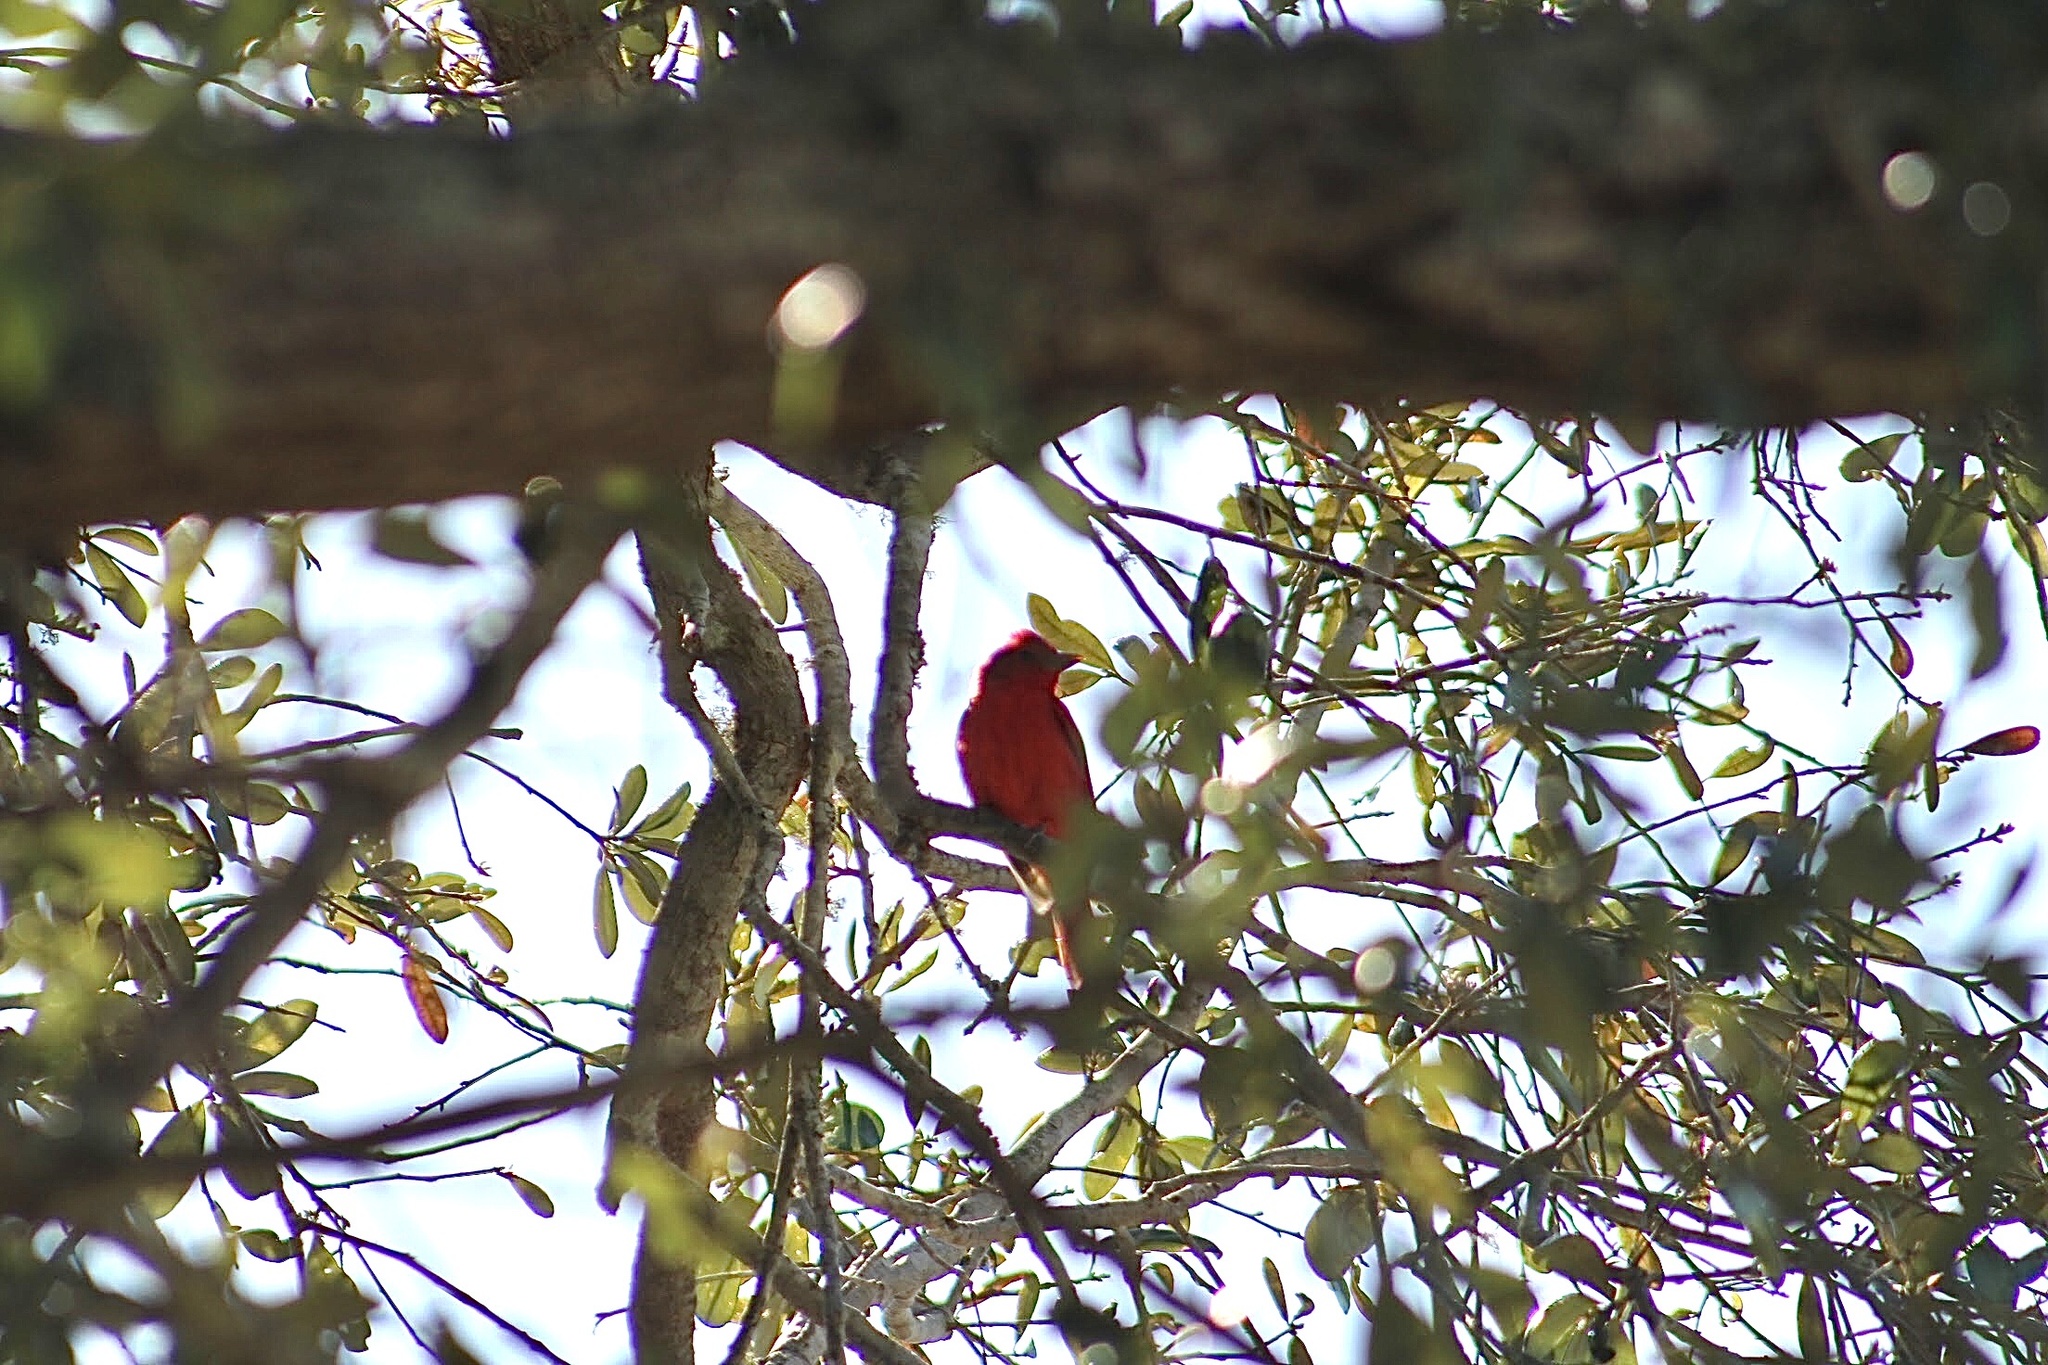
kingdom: Animalia
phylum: Chordata
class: Aves
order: Passeriformes
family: Cardinalidae
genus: Piranga
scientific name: Piranga rubra
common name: Summer tanager
